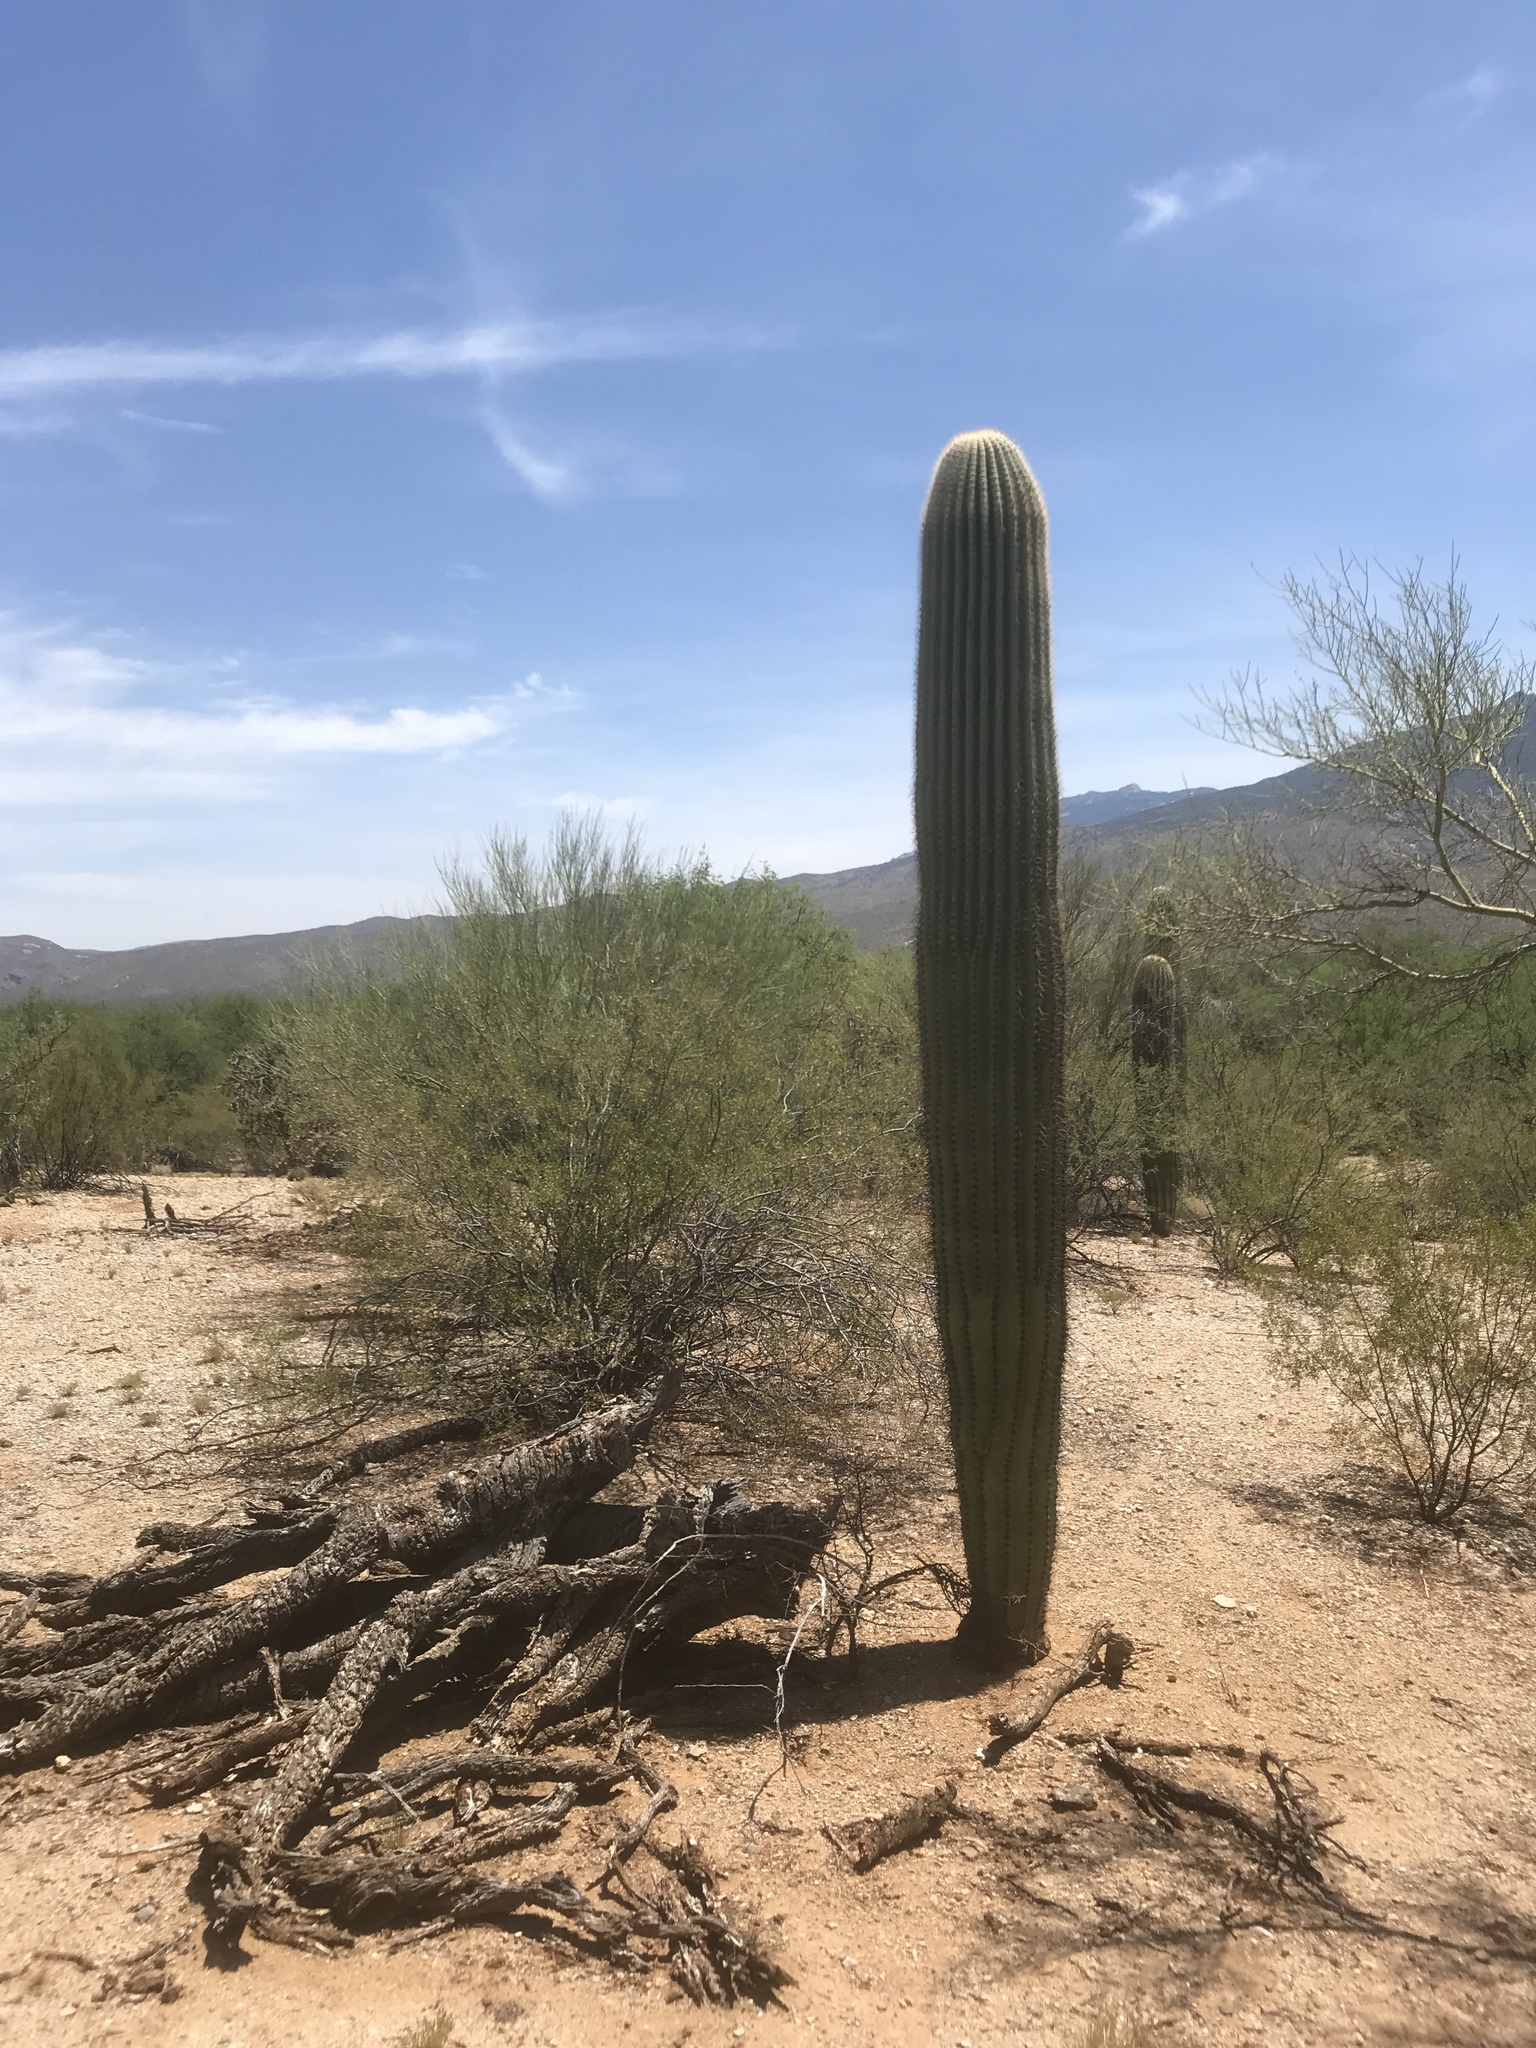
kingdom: Plantae
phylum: Tracheophyta
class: Magnoliopsida
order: Caryophyllales
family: Cactaceae
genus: Carnegiea
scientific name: Carnegiea gigantea
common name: Saguaro
